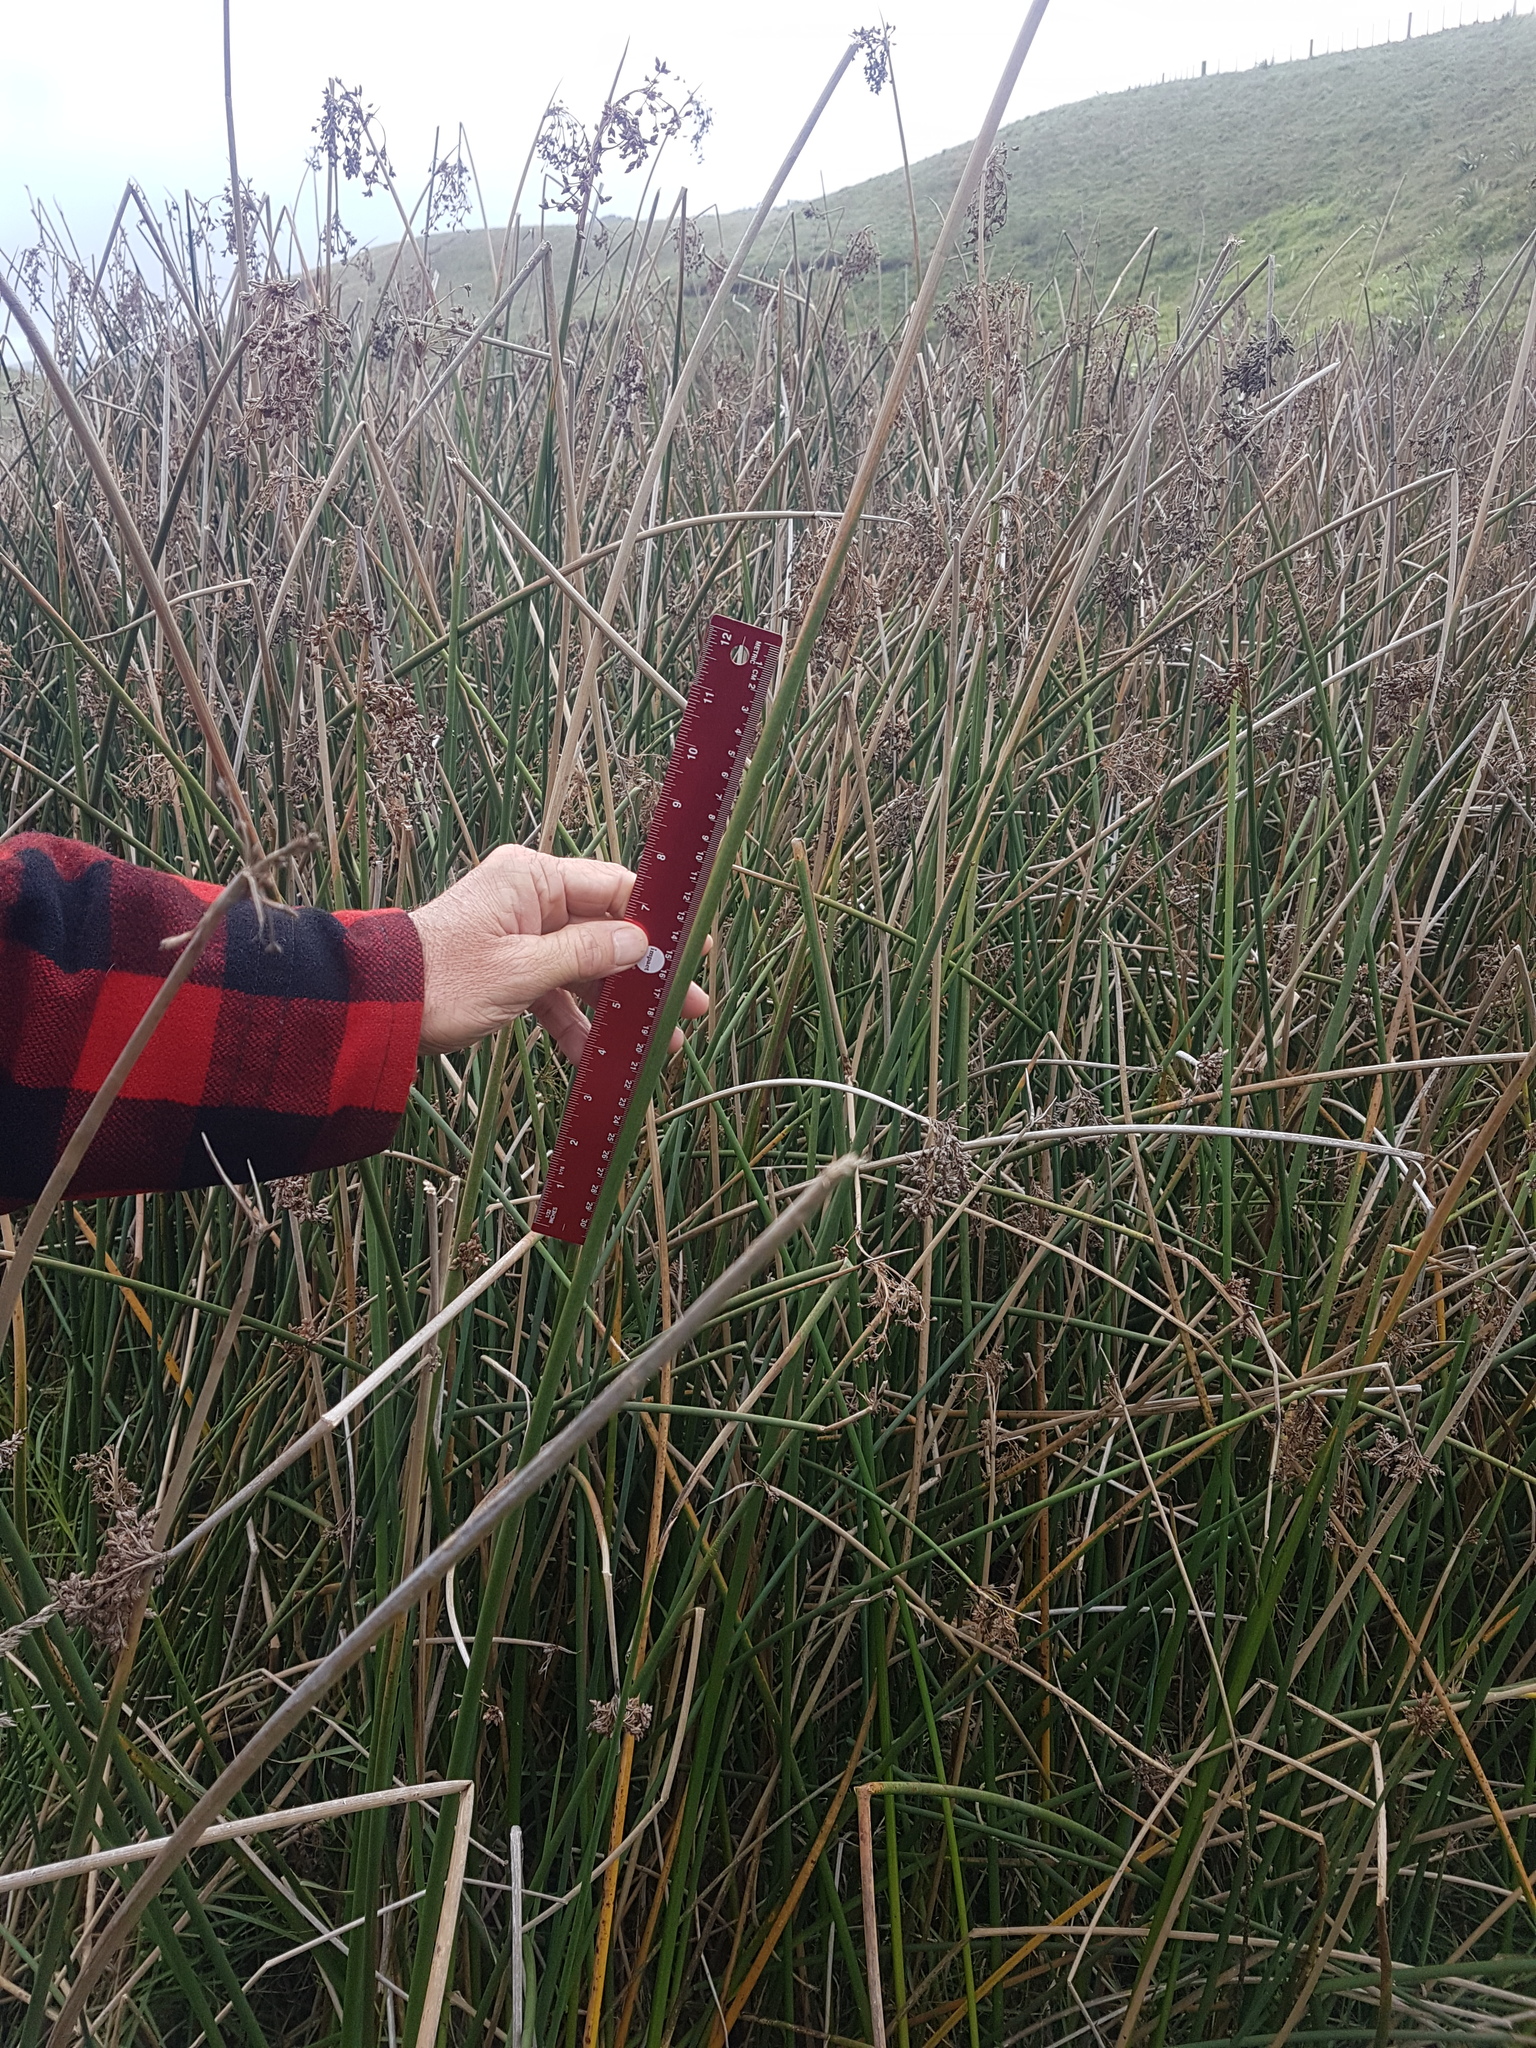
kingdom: Plantae
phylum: Tracheophyta
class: Liliopsida
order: Poales
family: Cyperaceae
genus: Schoenoplectus
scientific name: Schoenoplectus tabernaemontani
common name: Grey club-rush
